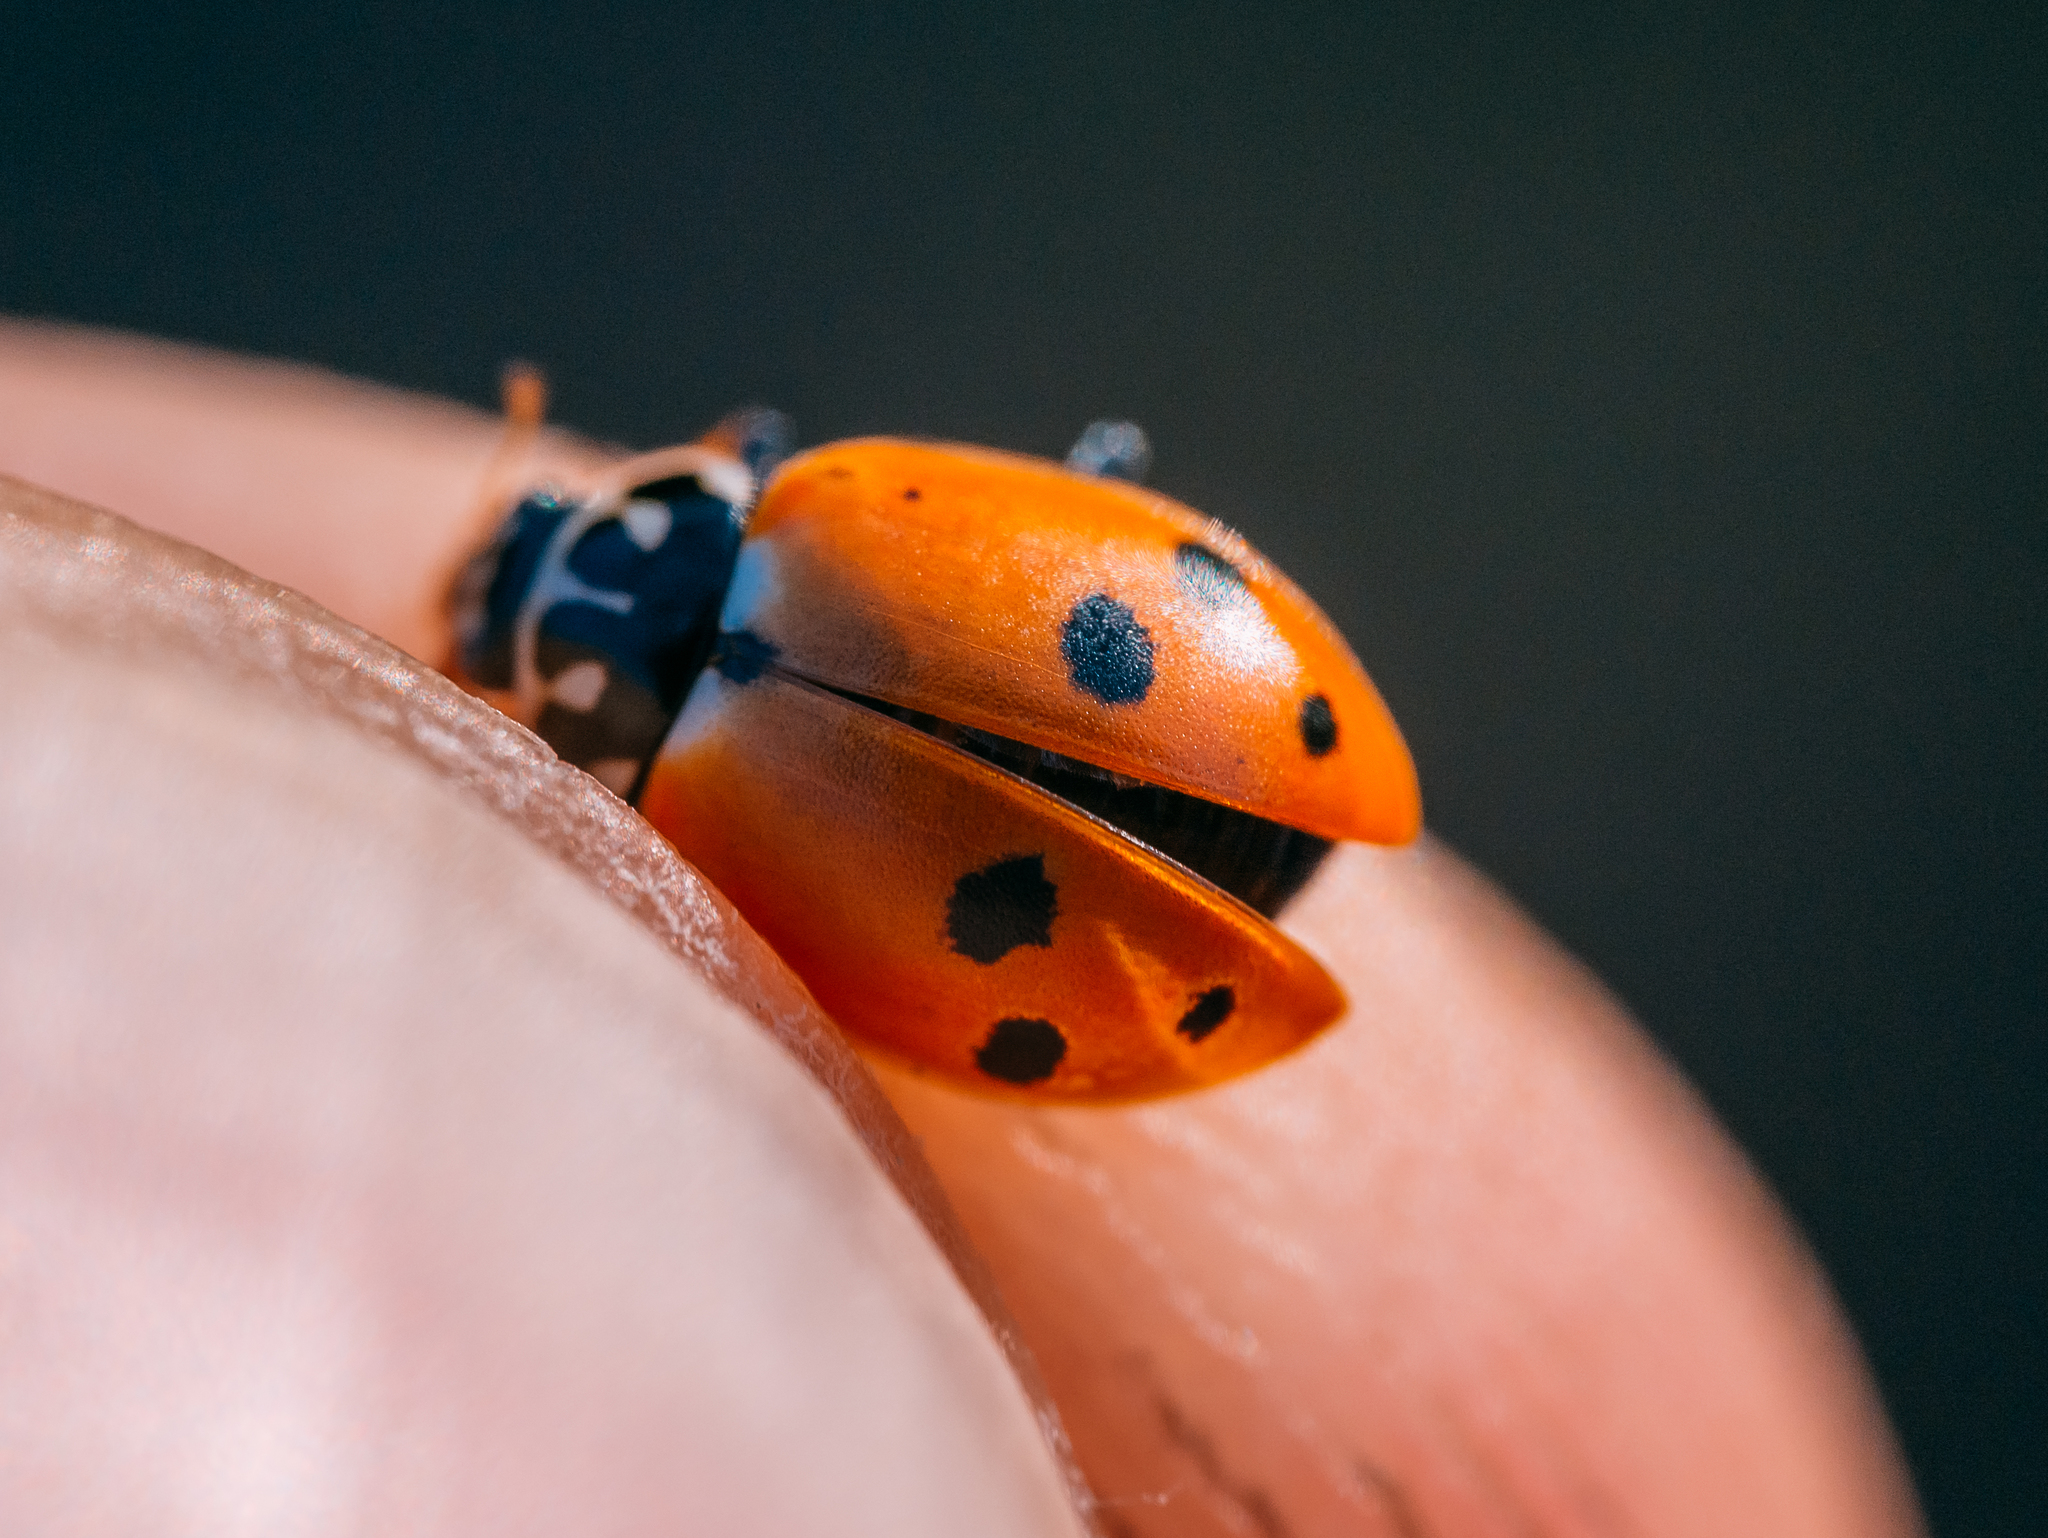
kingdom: Animalia
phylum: Arthropoda
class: Insecta
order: Coleoptera
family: Coccinellidae
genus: Hippodamia
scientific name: Hippodamia variegata
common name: Ladybird beetle
